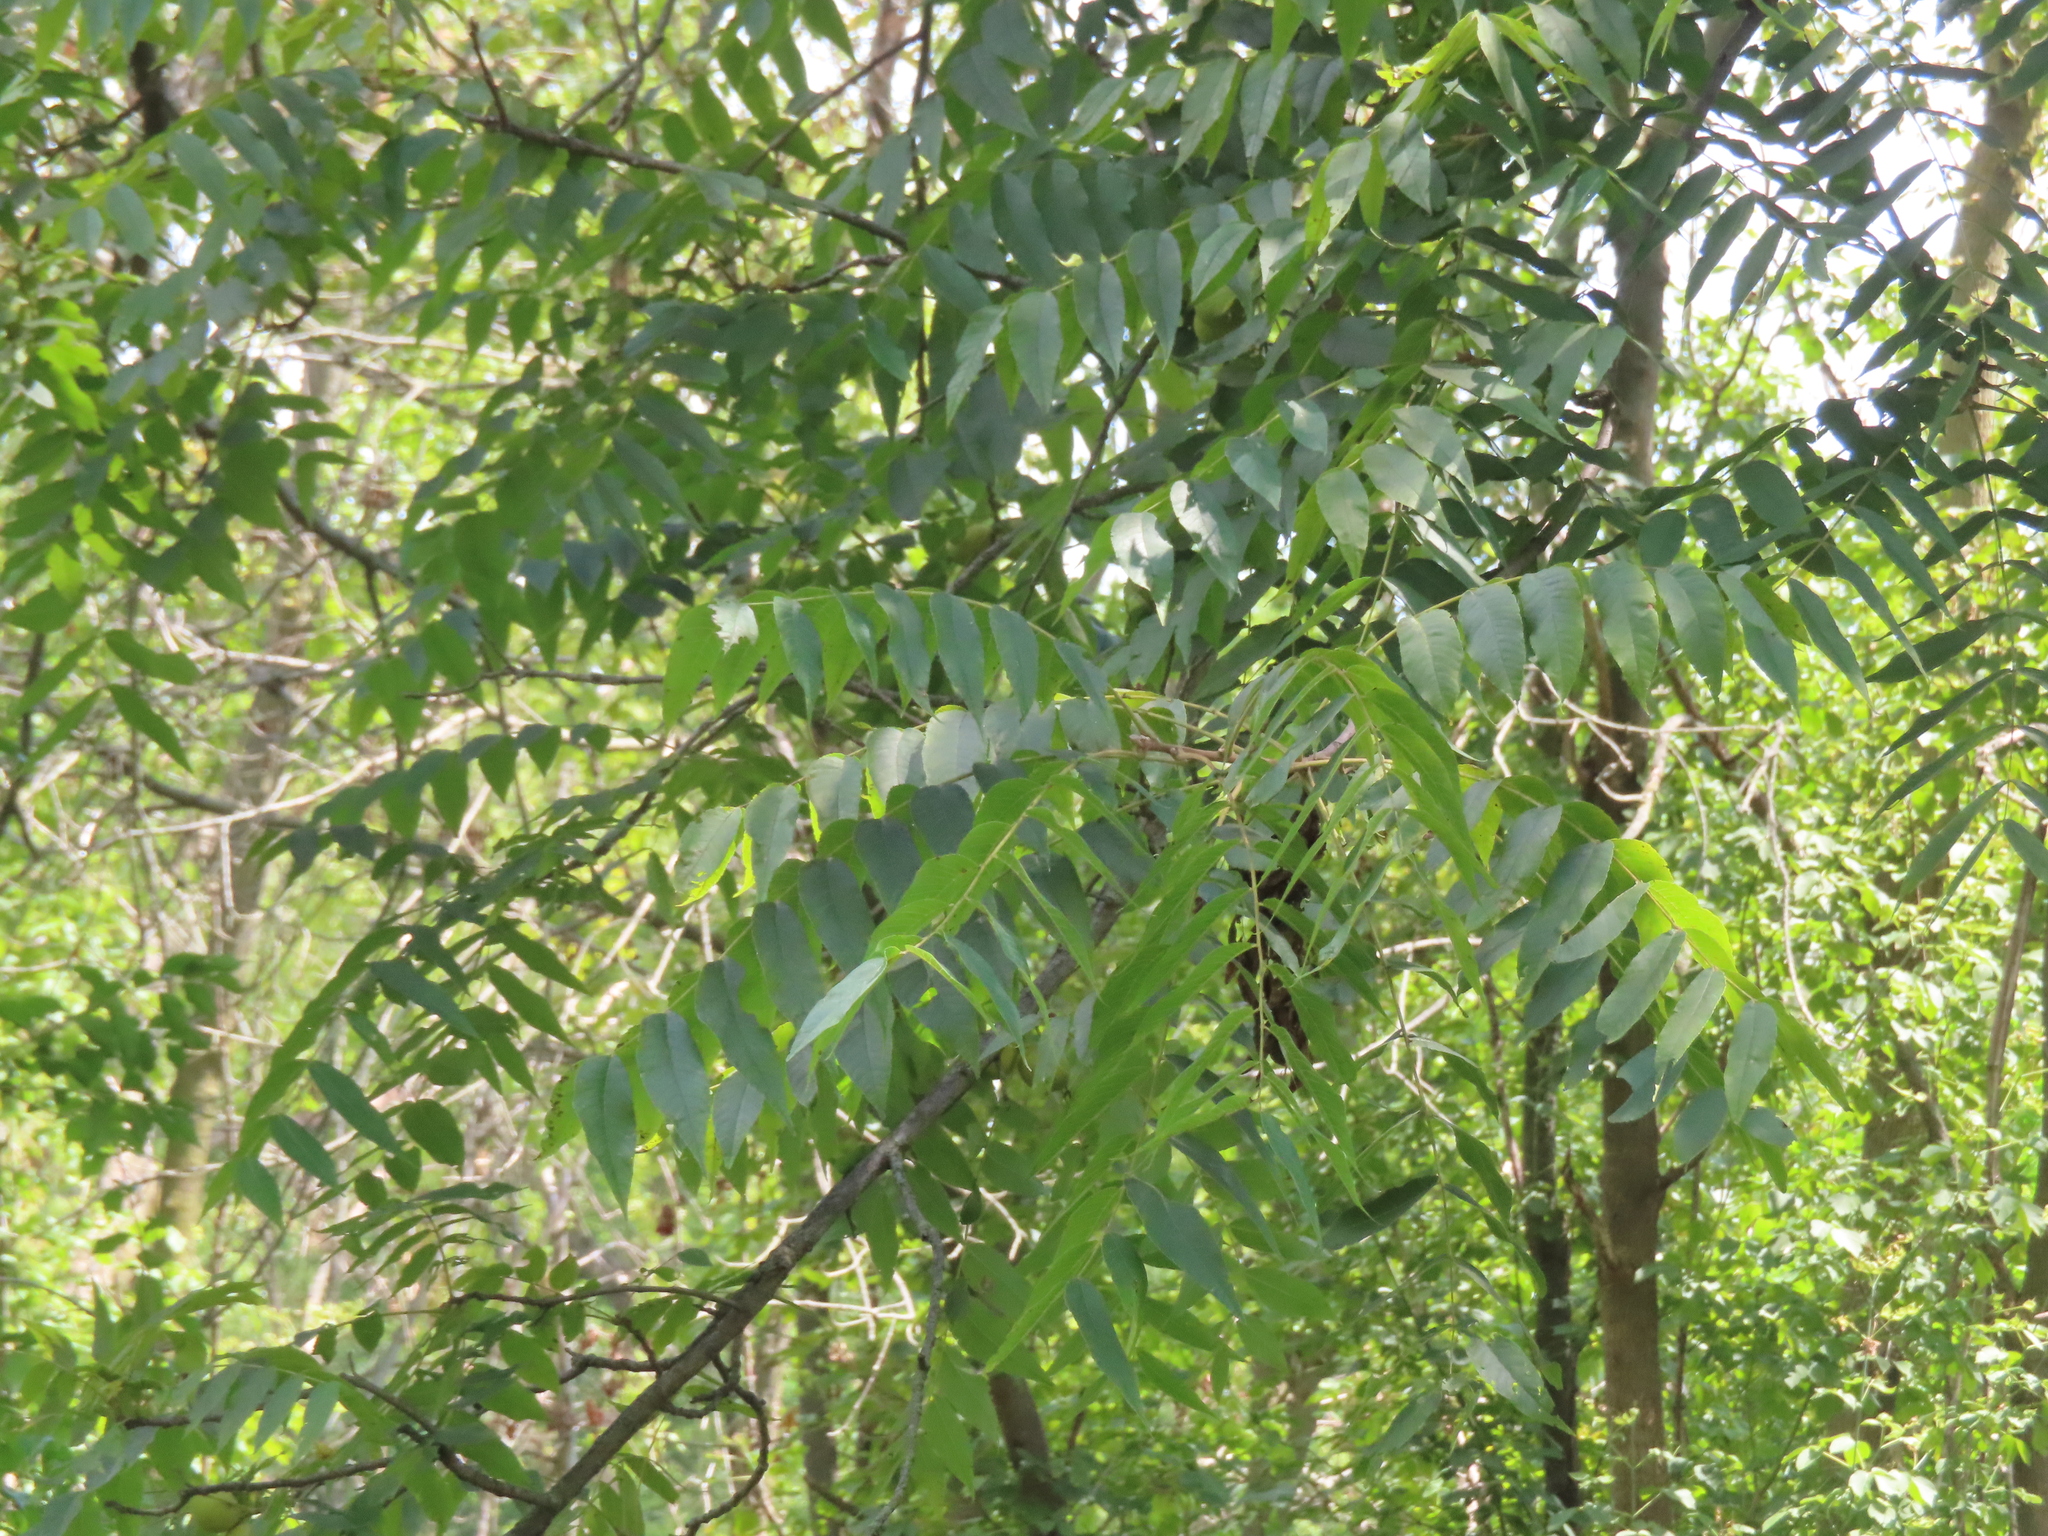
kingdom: Plantae
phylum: Tracheophyta
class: Magnoliopsida
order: Fagales
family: Juglandaceae
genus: Juglans
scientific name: Juglans nigra
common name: Black walnut
